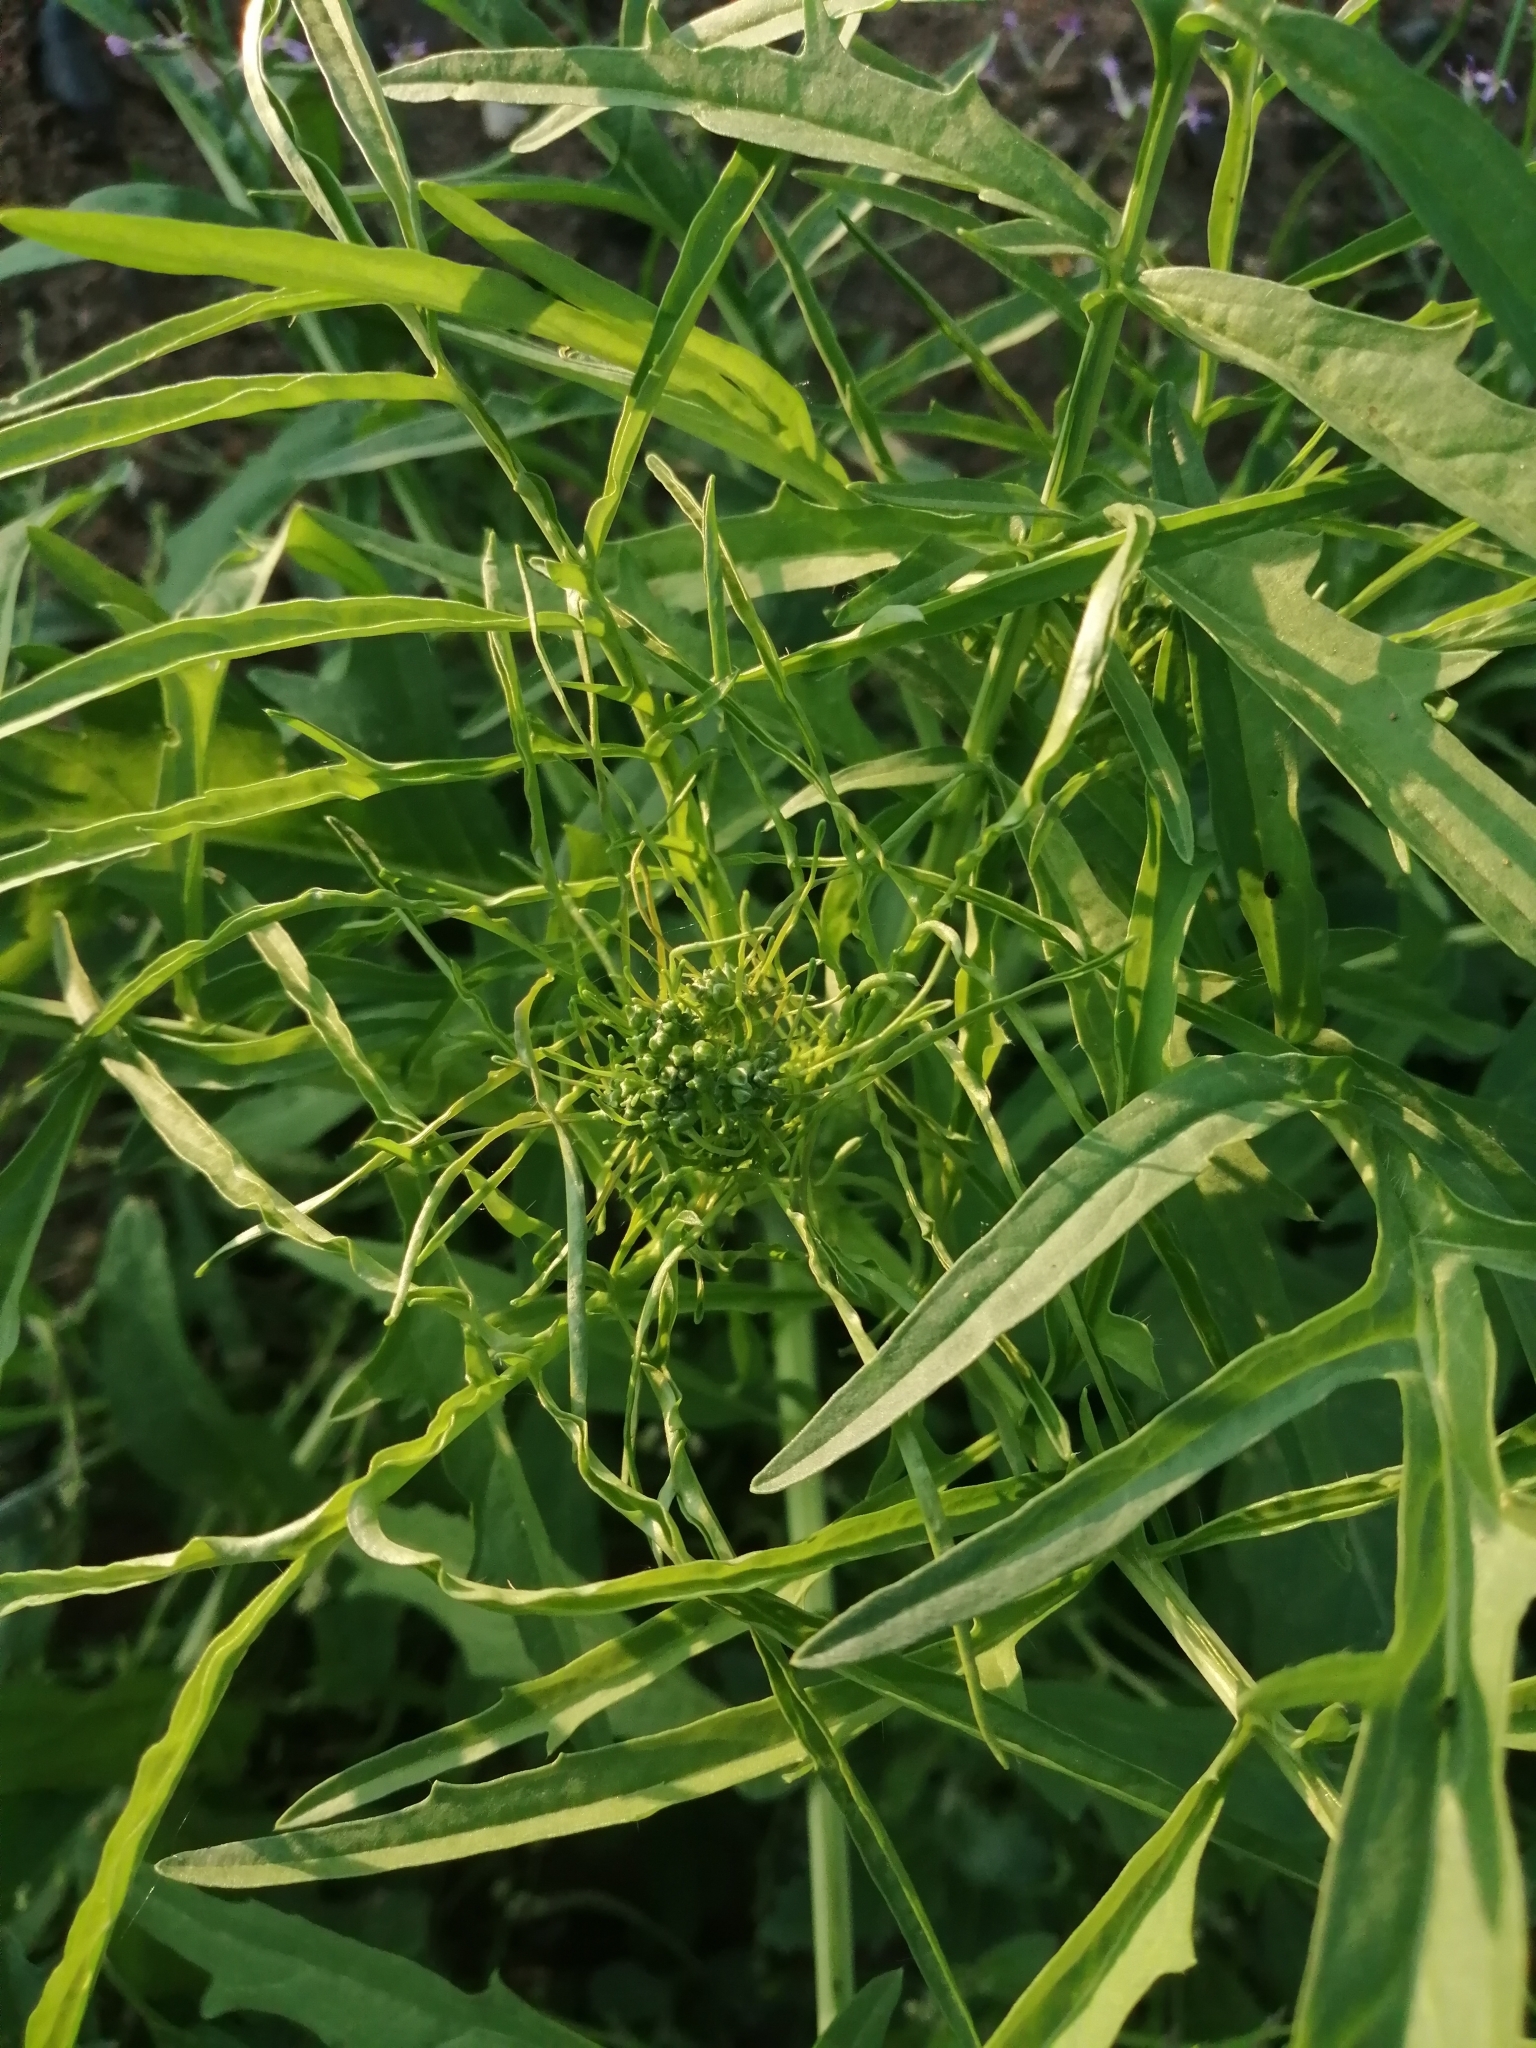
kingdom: Plantae
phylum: Tracheophyta
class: Magnoliopsida
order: Brassicales
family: Brassicaceae
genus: Sisymbrium
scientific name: Sisymbrium altissimum
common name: Tall rocket
